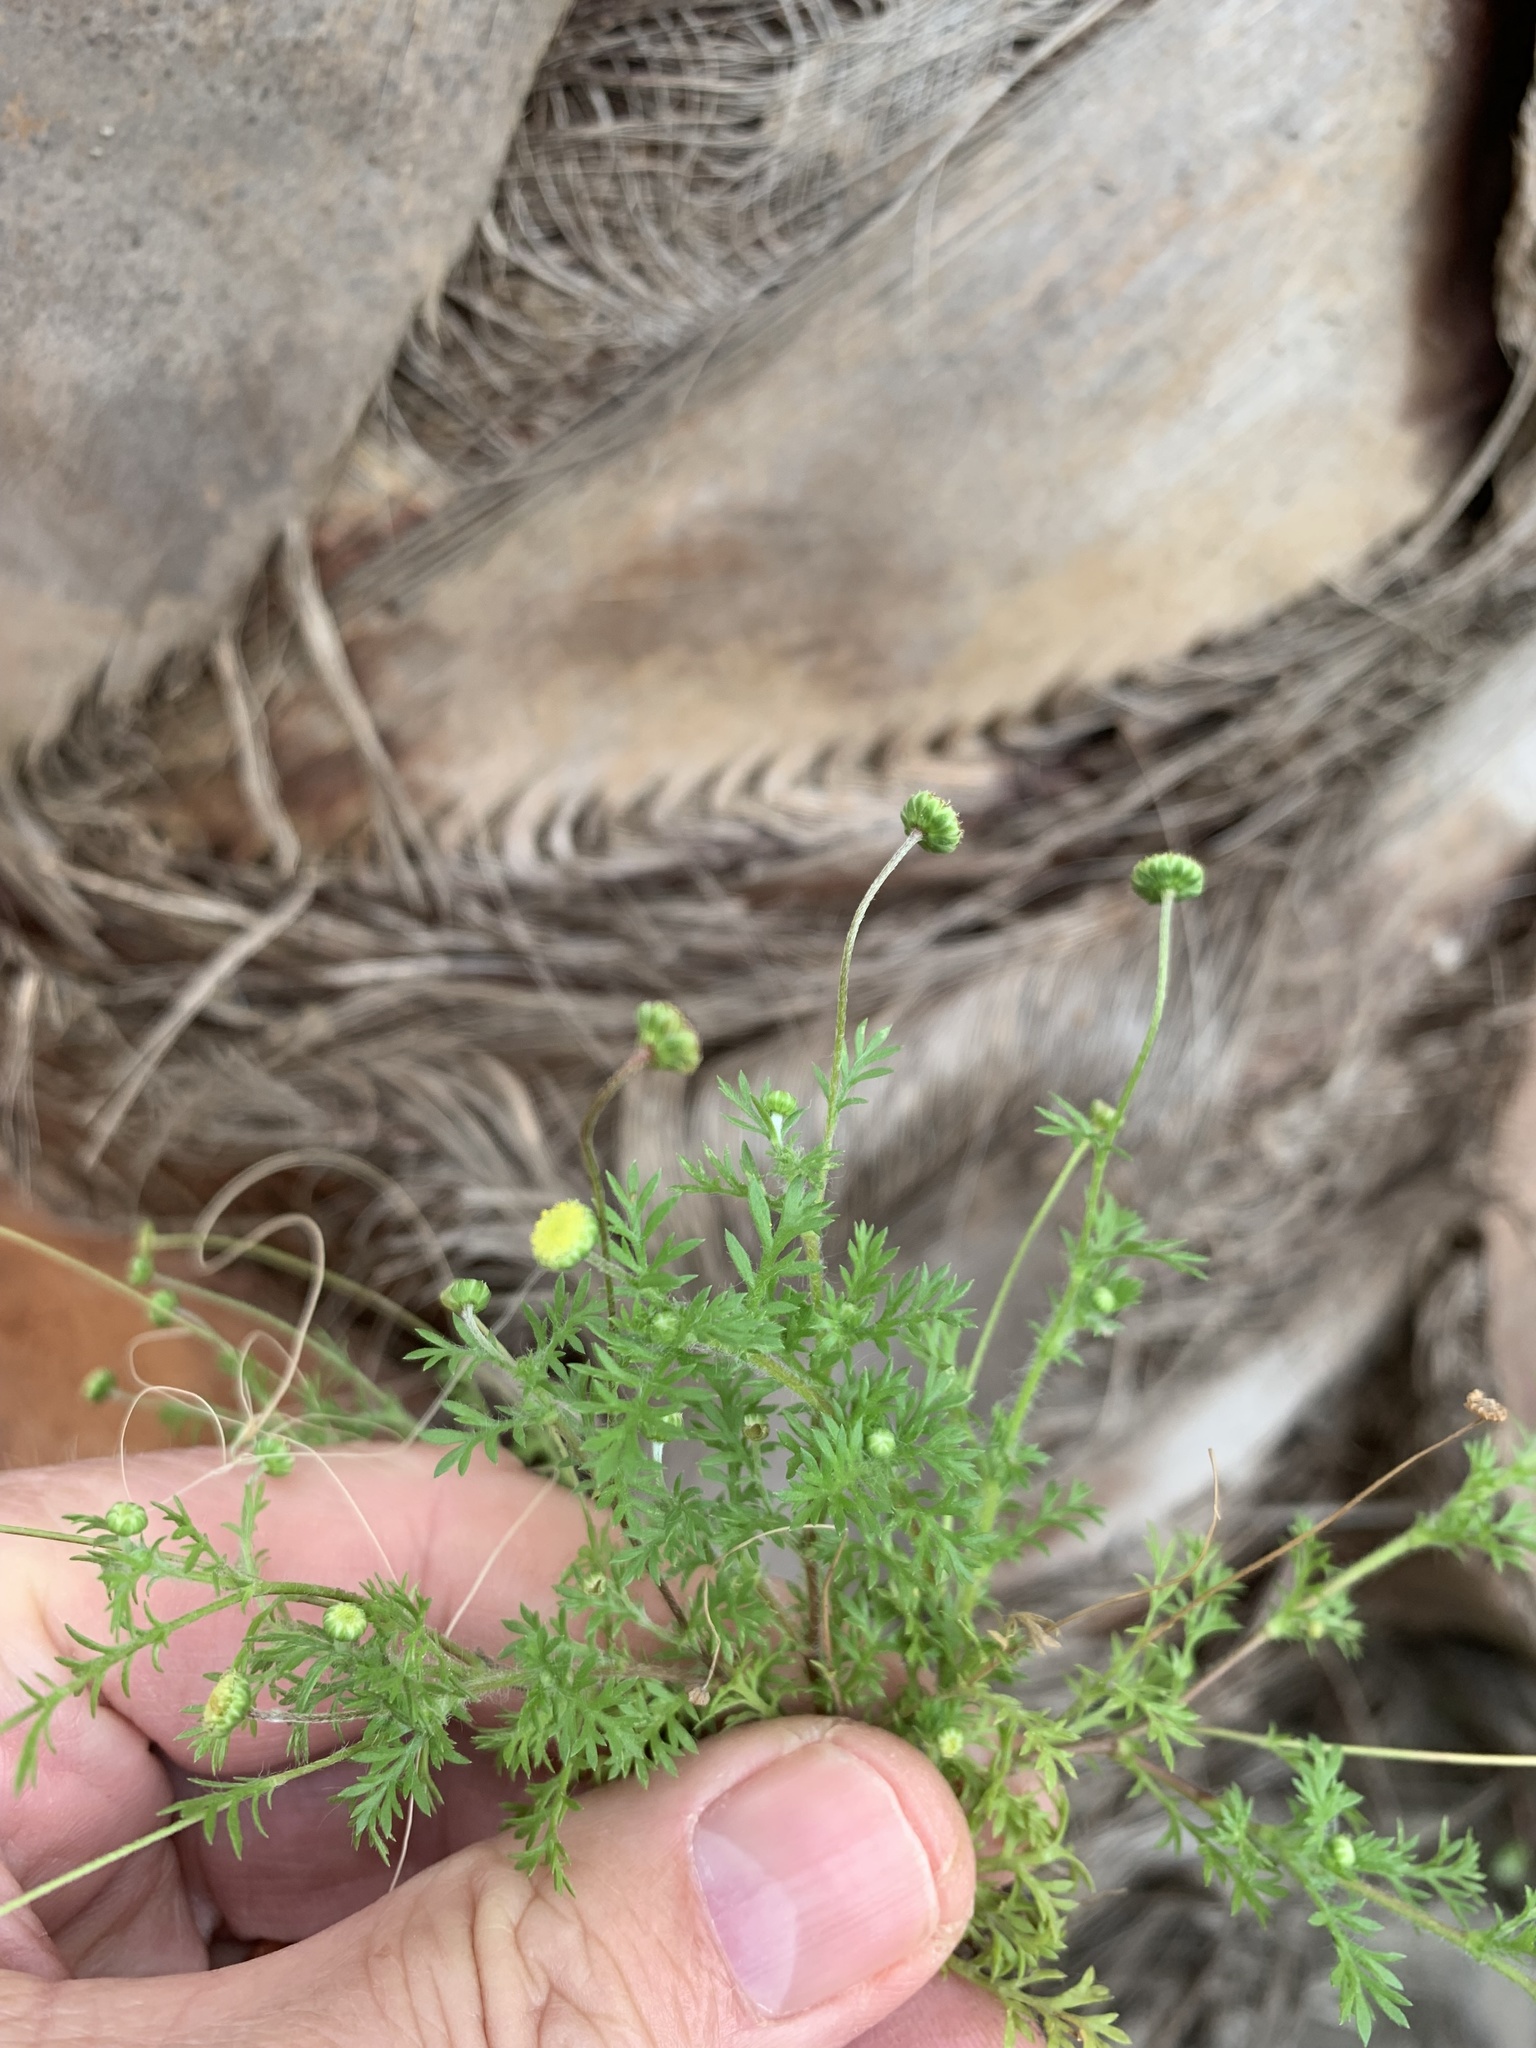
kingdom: Plantae
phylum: Tracheophyta
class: Magnoliopsida
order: Asterales
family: Asteraceae
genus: Cotula
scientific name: Cotula australis
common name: Australian waterbuttons
